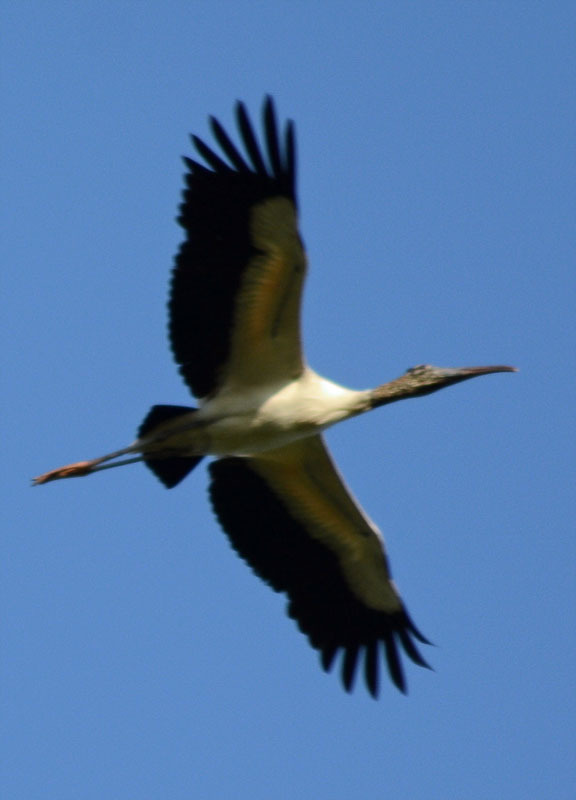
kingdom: Animalia
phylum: Chordata
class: Aves
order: Ciconiiformes
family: Ciconiidae
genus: Mycteria
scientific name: Mycteria americana
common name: Wood stork
